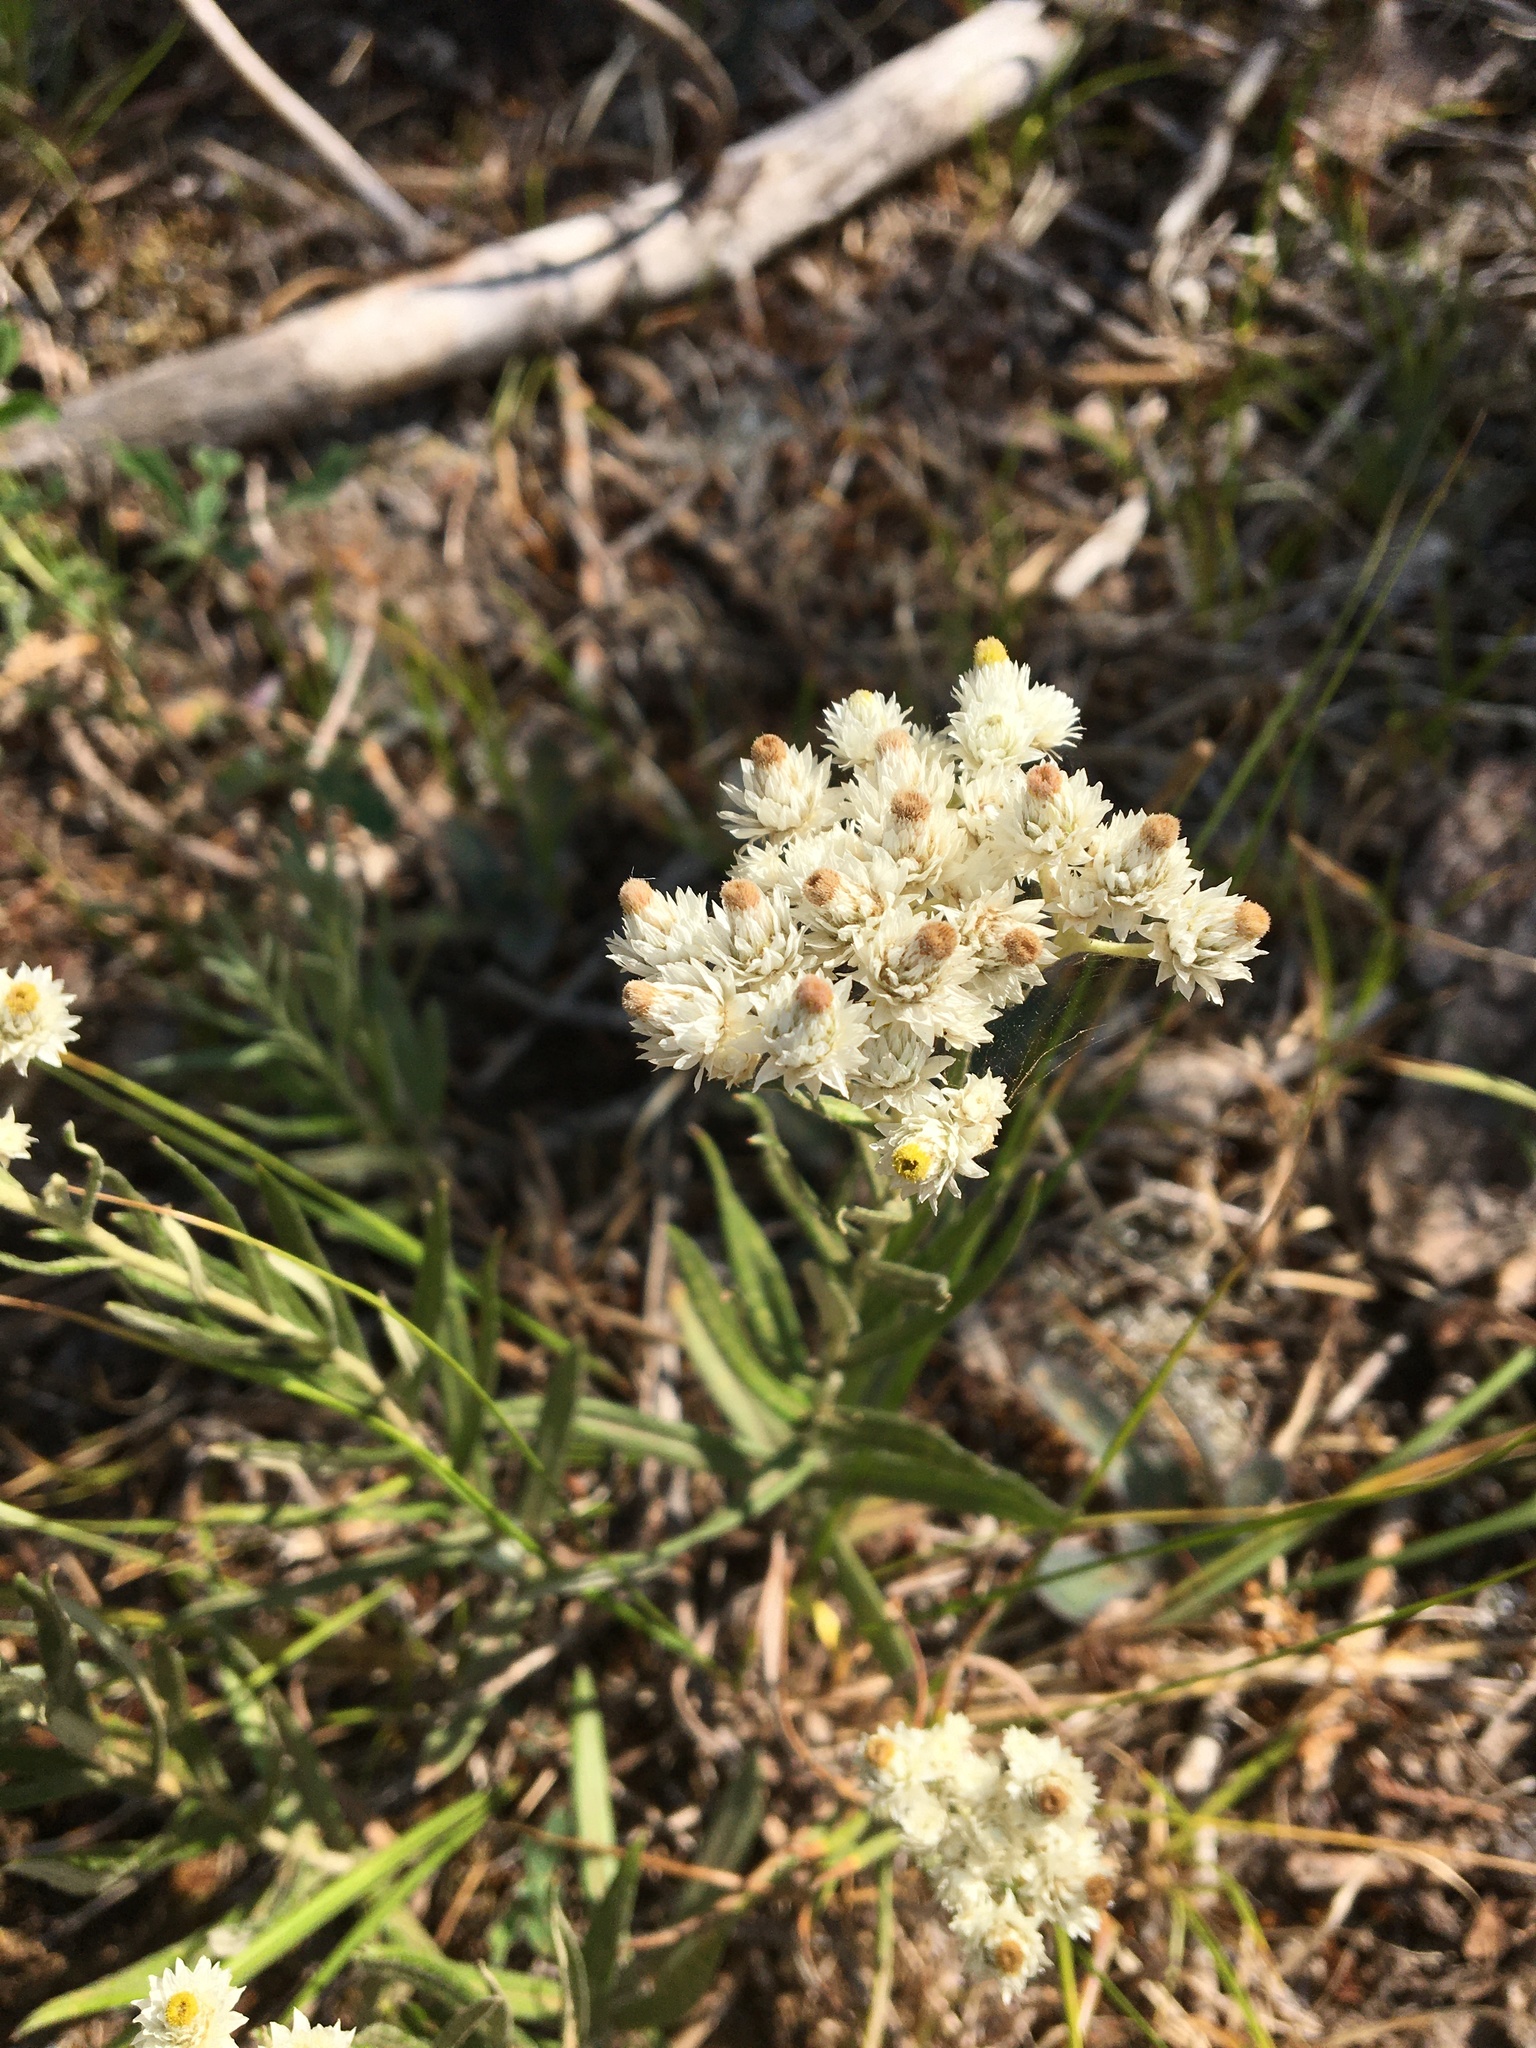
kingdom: Plantae
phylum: Tracheophyta
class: Magnoliopsida
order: Asterales
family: Asteraceae
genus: Anaphalis
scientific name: Anaphalis margaritacea
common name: Pearly everlasting
